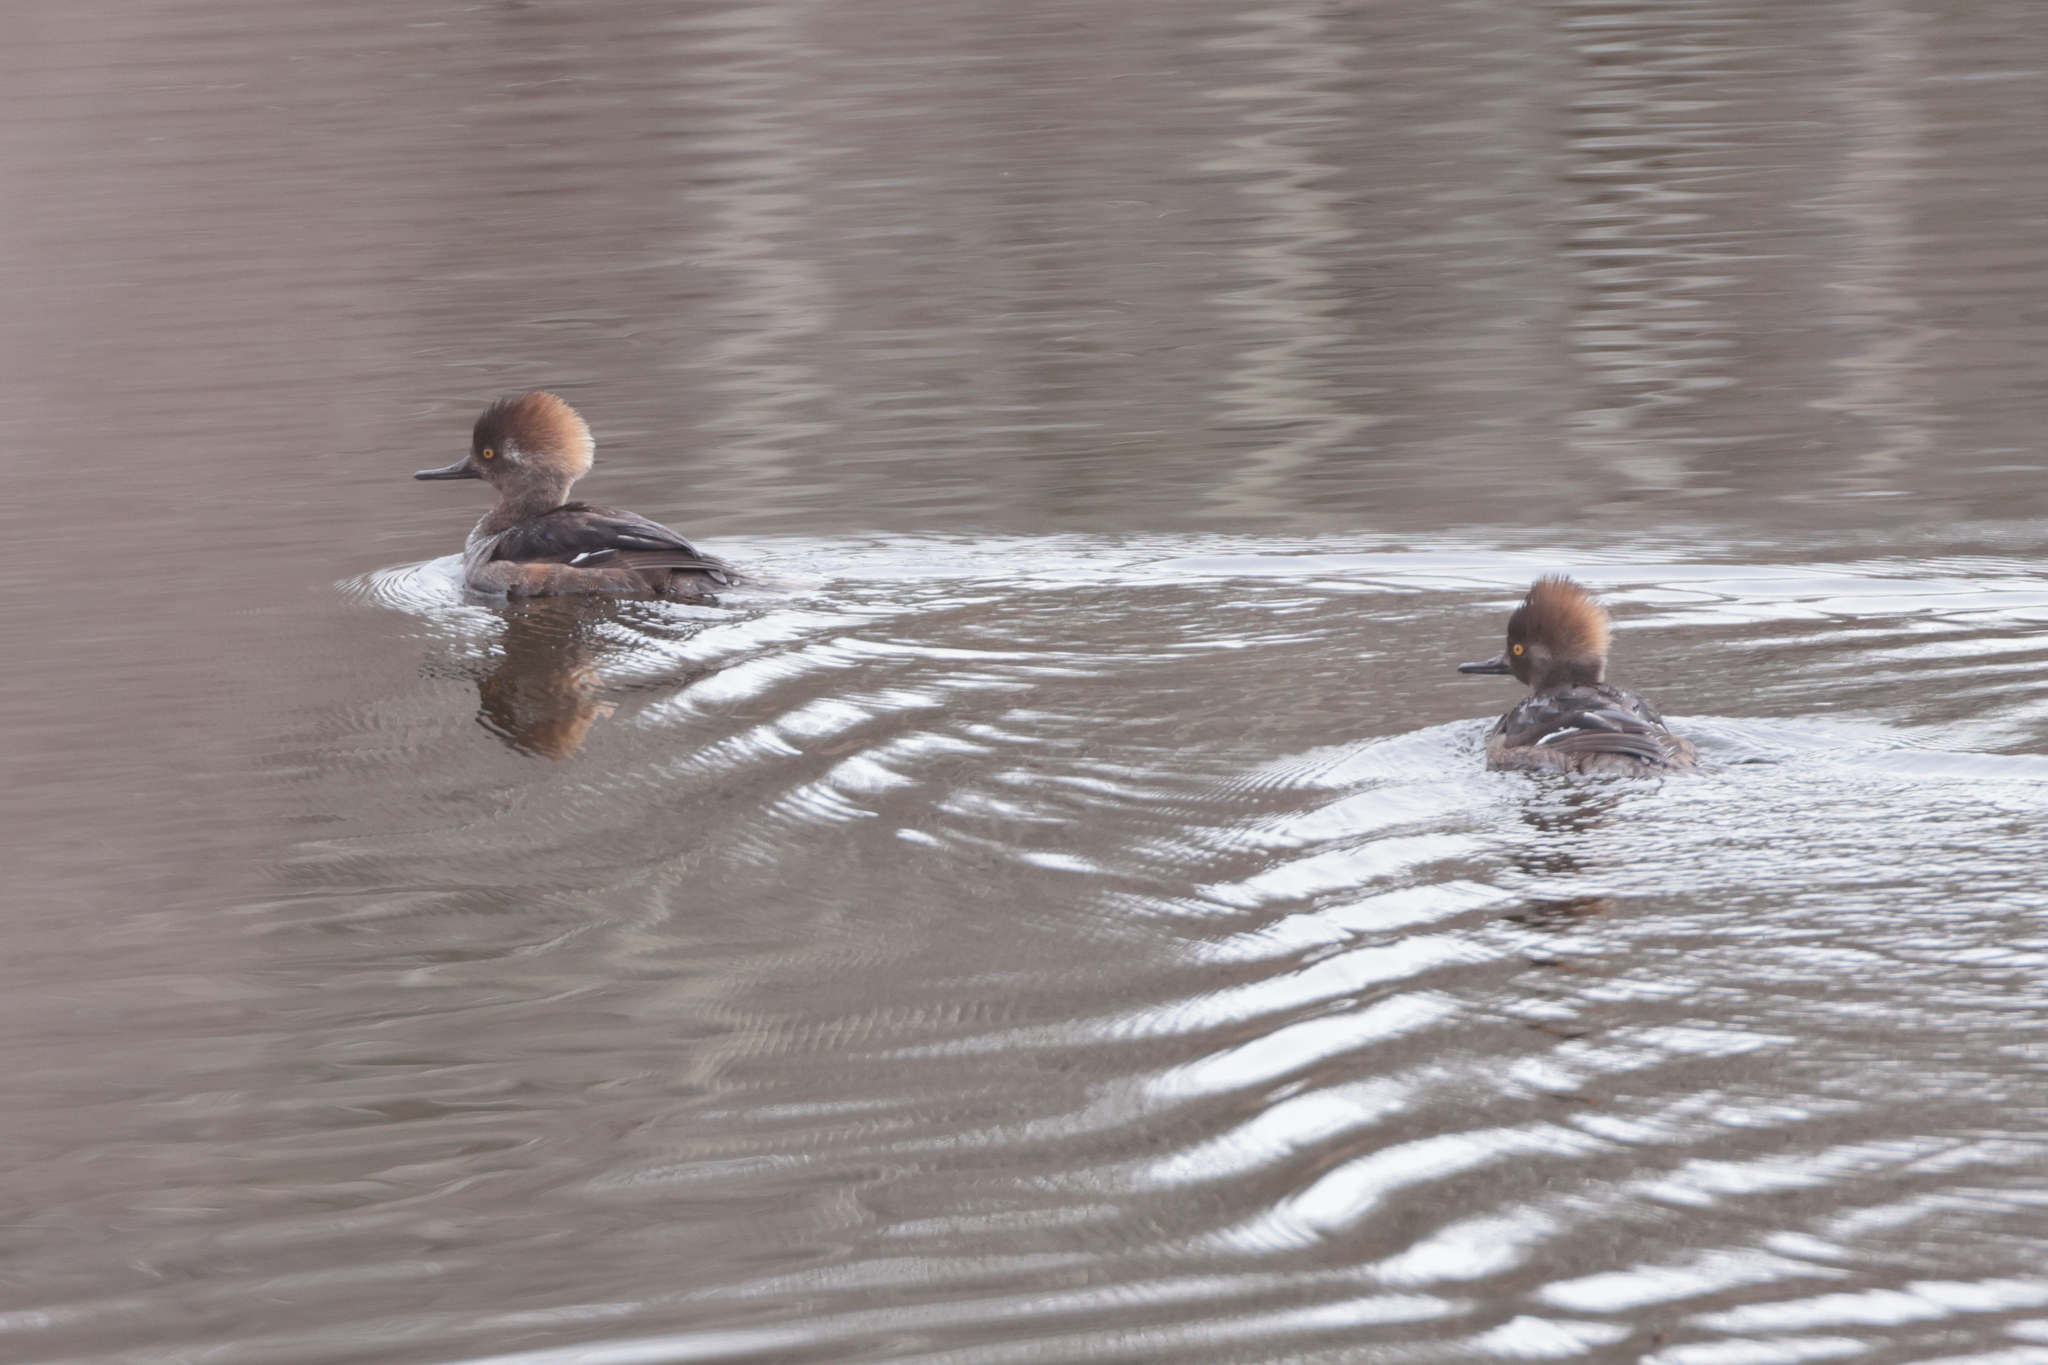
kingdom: Animalia
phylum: Chordata
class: Aves
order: Anseriformes
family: Anatidae
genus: Lophodytes
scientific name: Lophodytes cucullatus
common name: Hooded merganser
